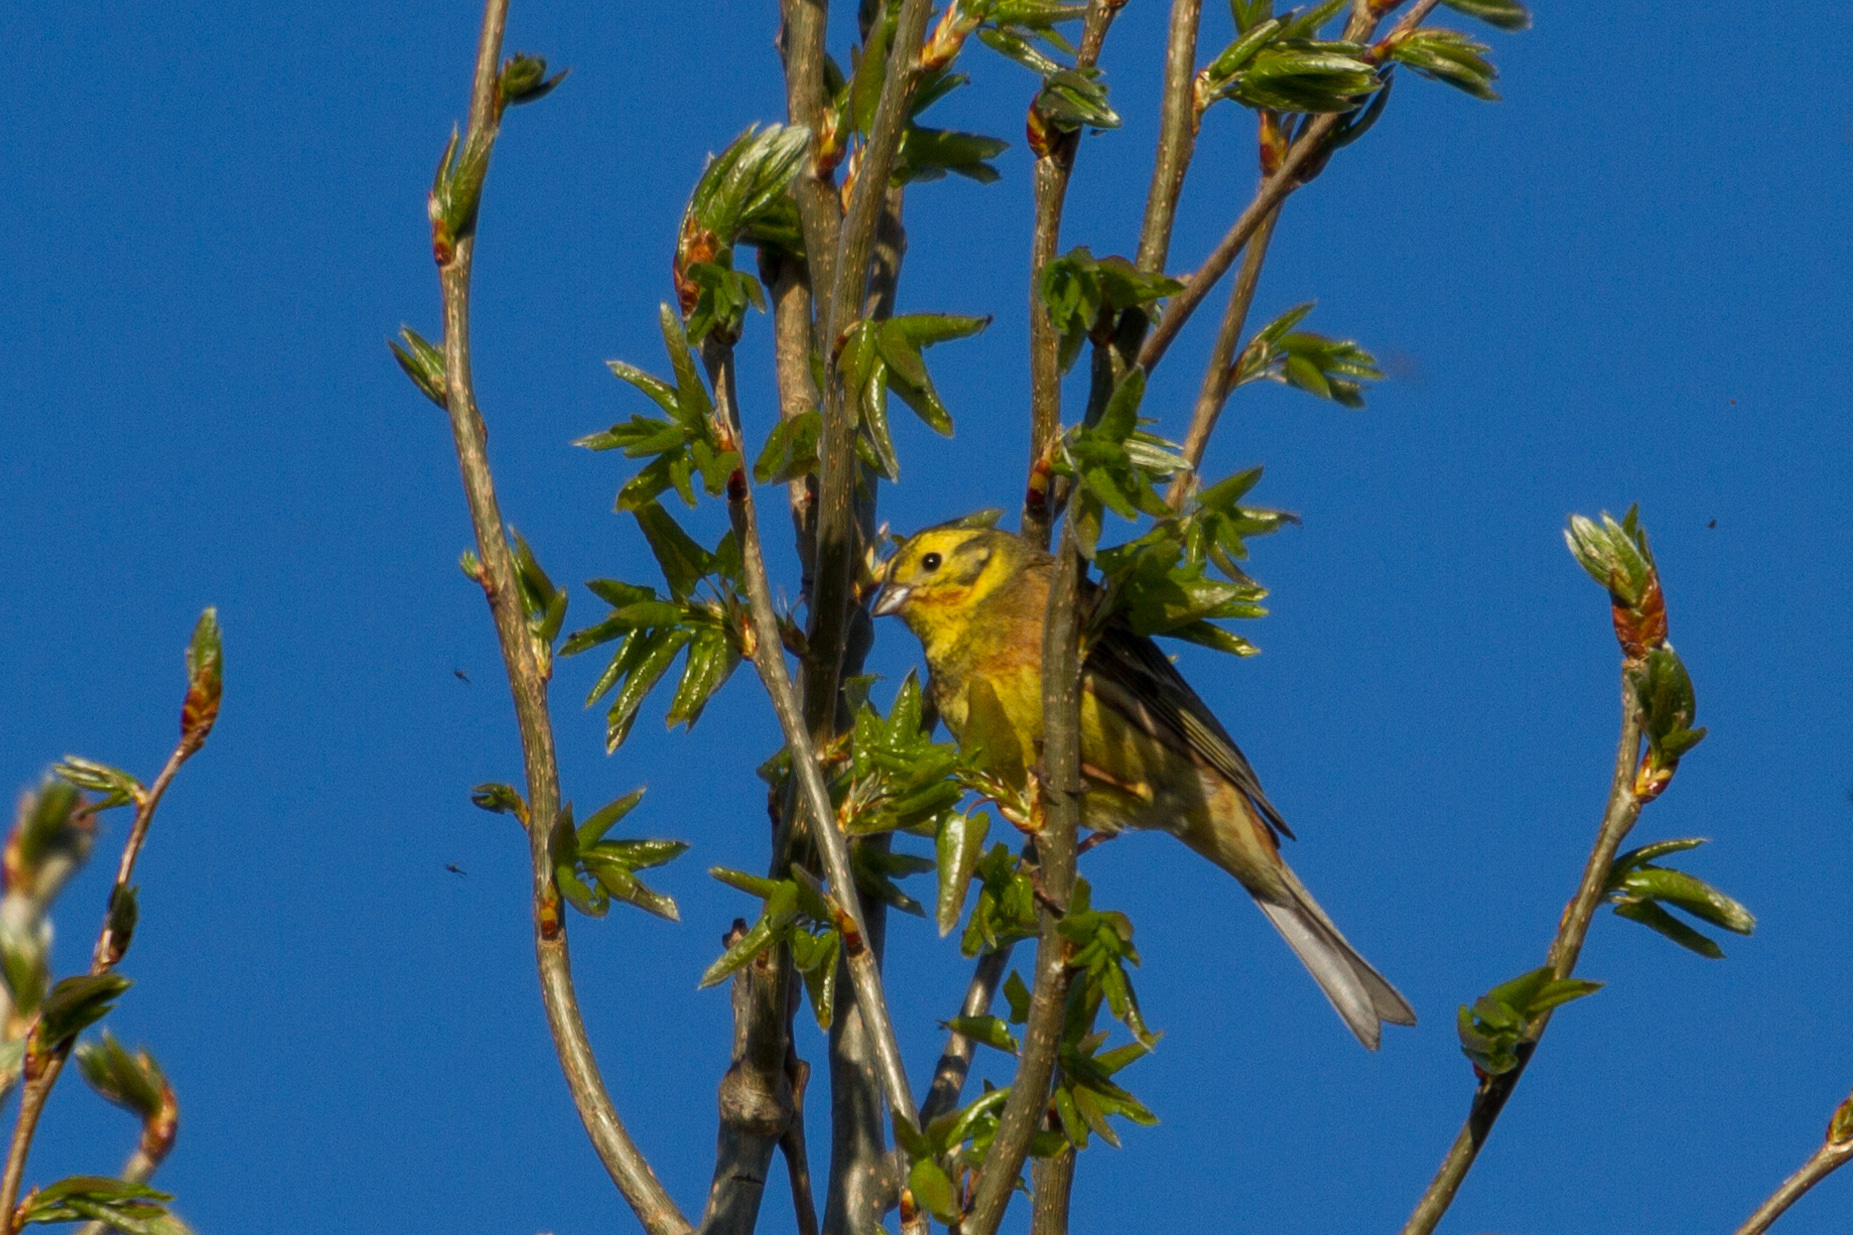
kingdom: Animalia
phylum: Chordata
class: Aves
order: Passeriformes
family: Emberizidae
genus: Emberiza
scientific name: Emberiza citrinella
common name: Yellowhammer
